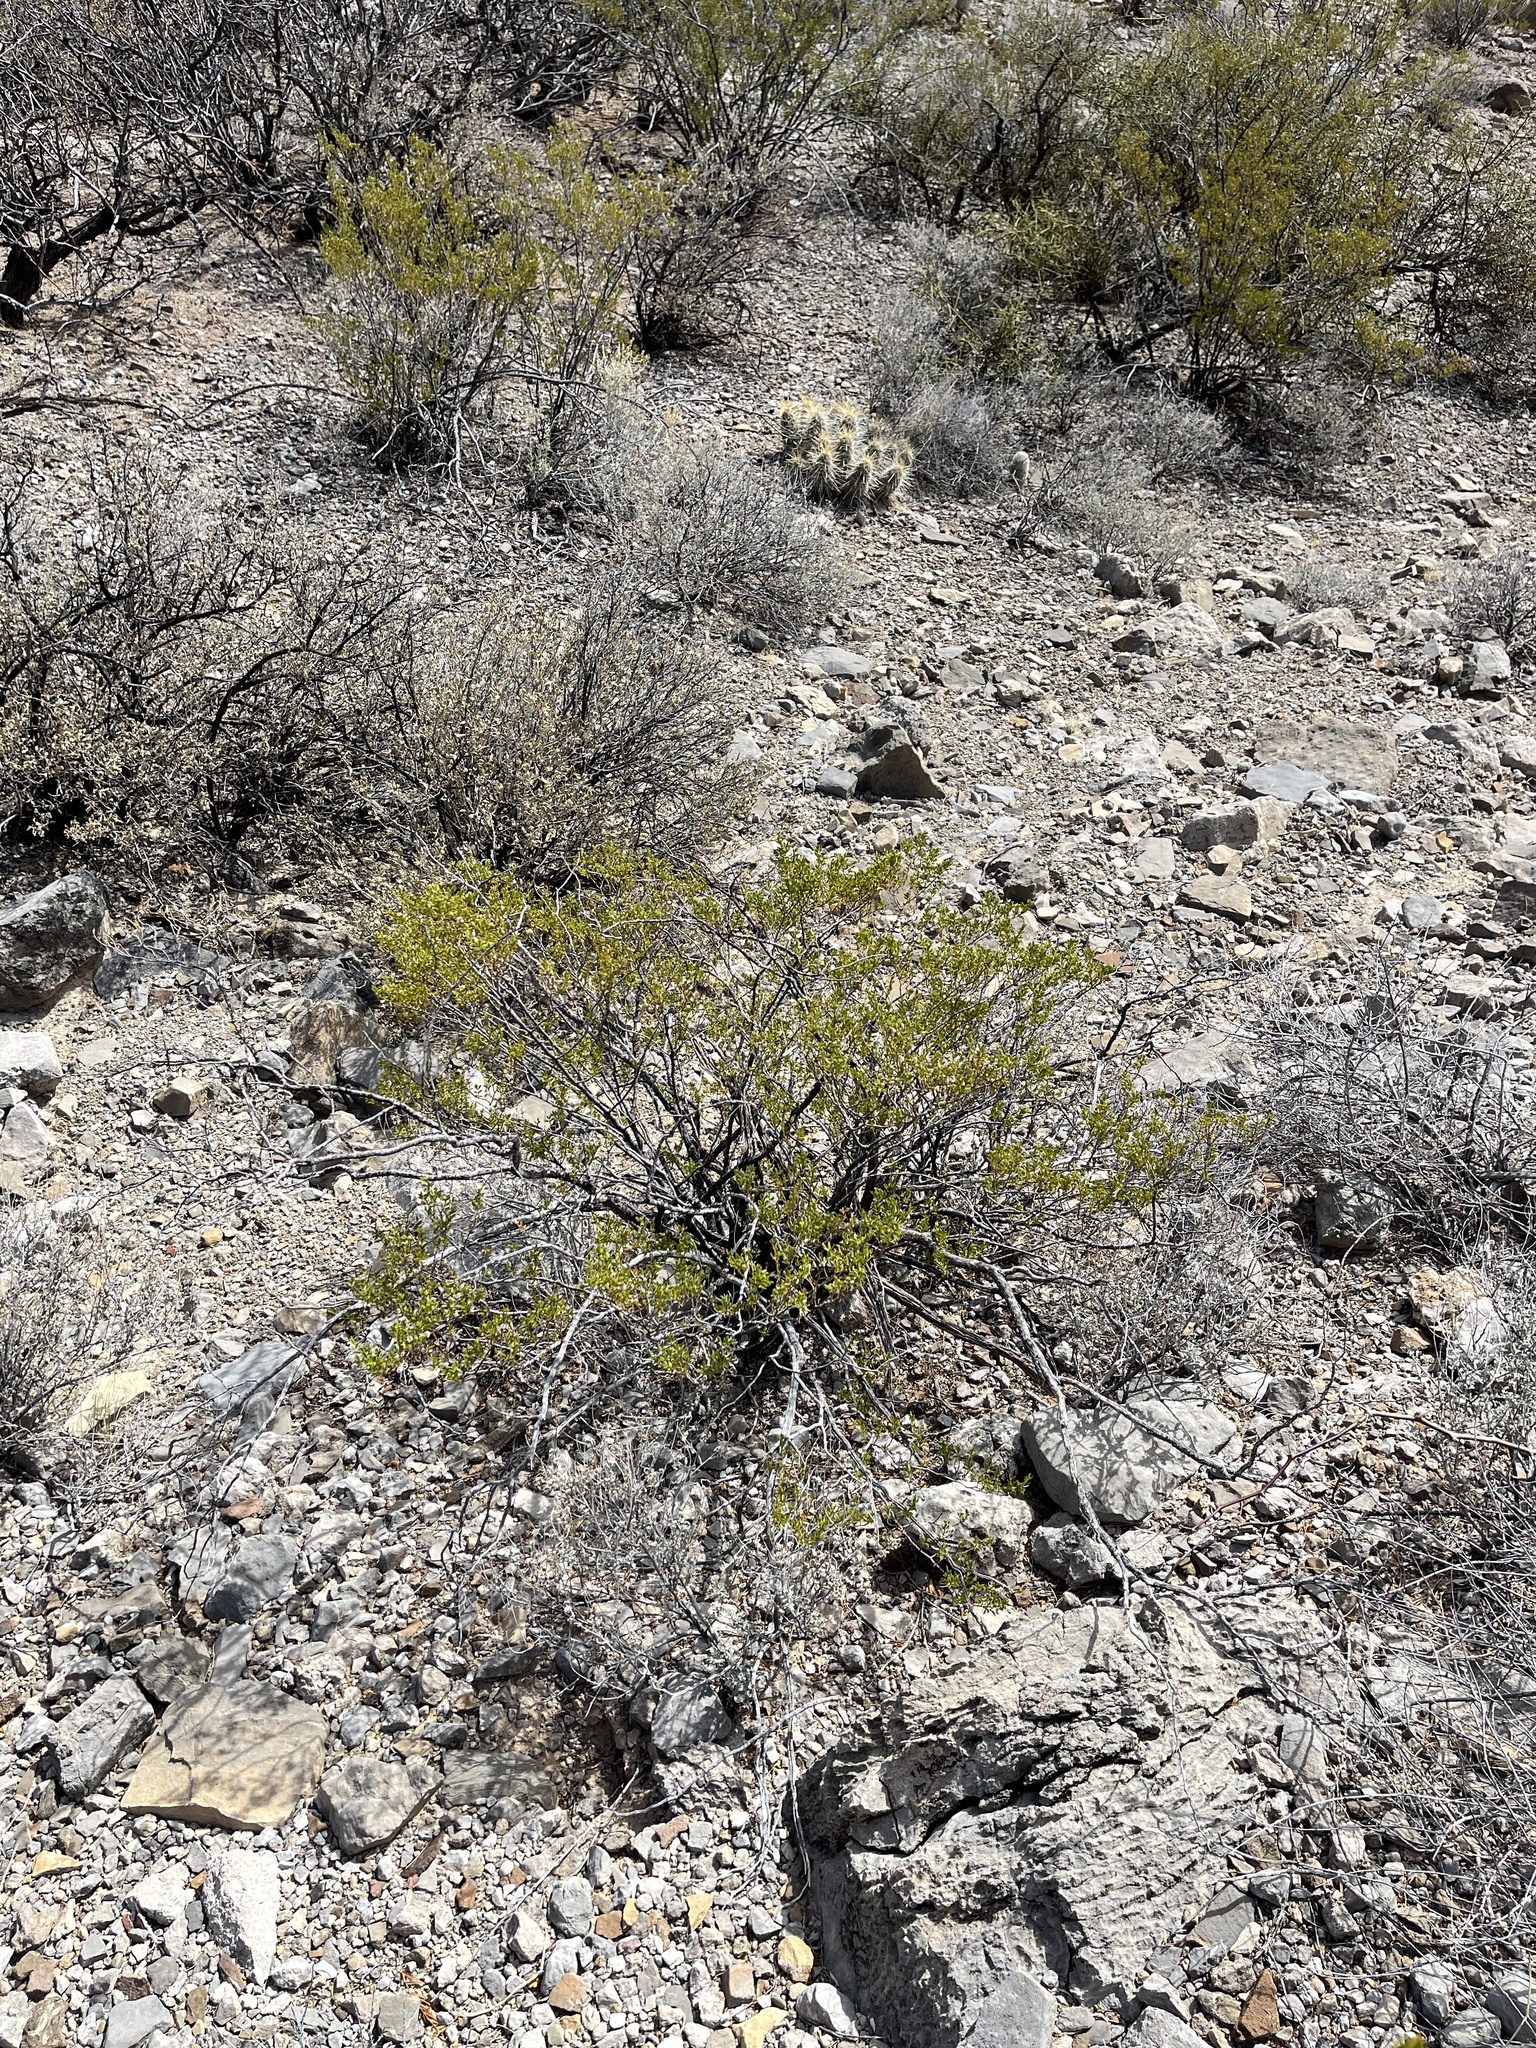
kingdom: Plantae
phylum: Tracheophyta
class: Magnoliopsida
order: Zygophyllales
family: Zygophyllaceae
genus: Larrea
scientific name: Larrea tridentata
